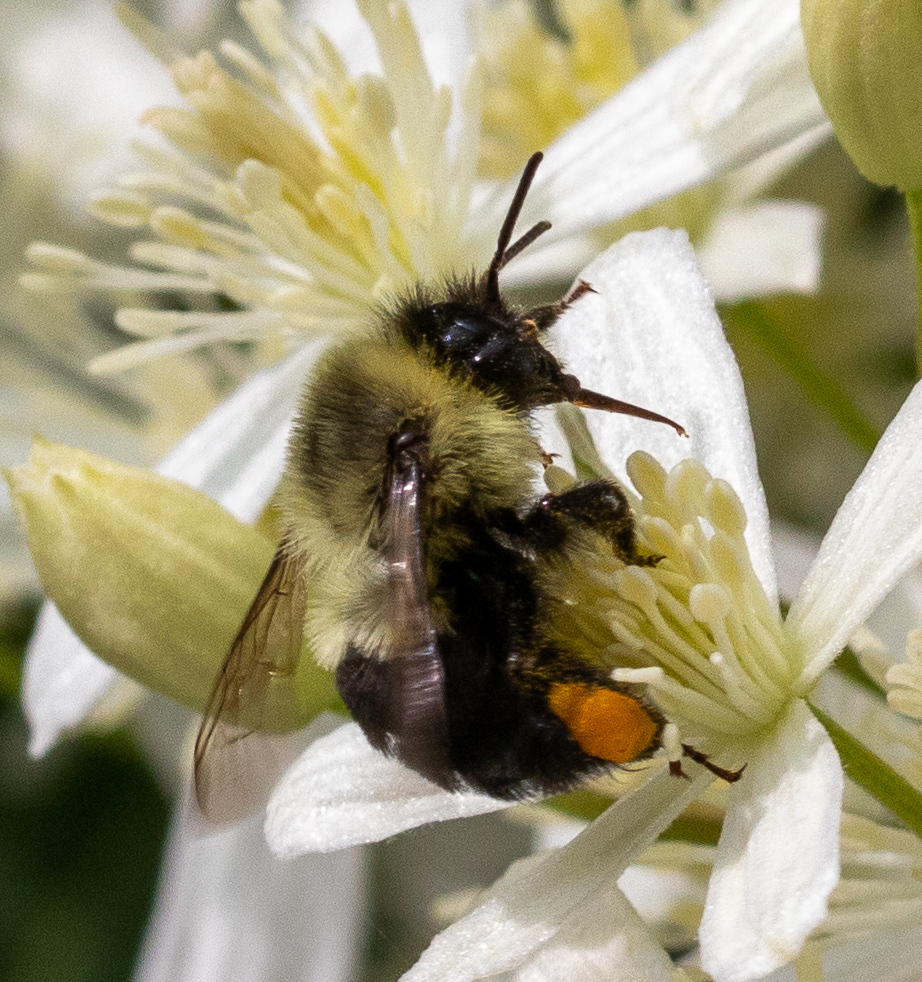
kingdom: Animalia
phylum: Arthropoda
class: Insecta
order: Hymenoptera
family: Apidae
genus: Bombus
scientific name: Bombus impatiens
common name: Common eastern bumble bee
